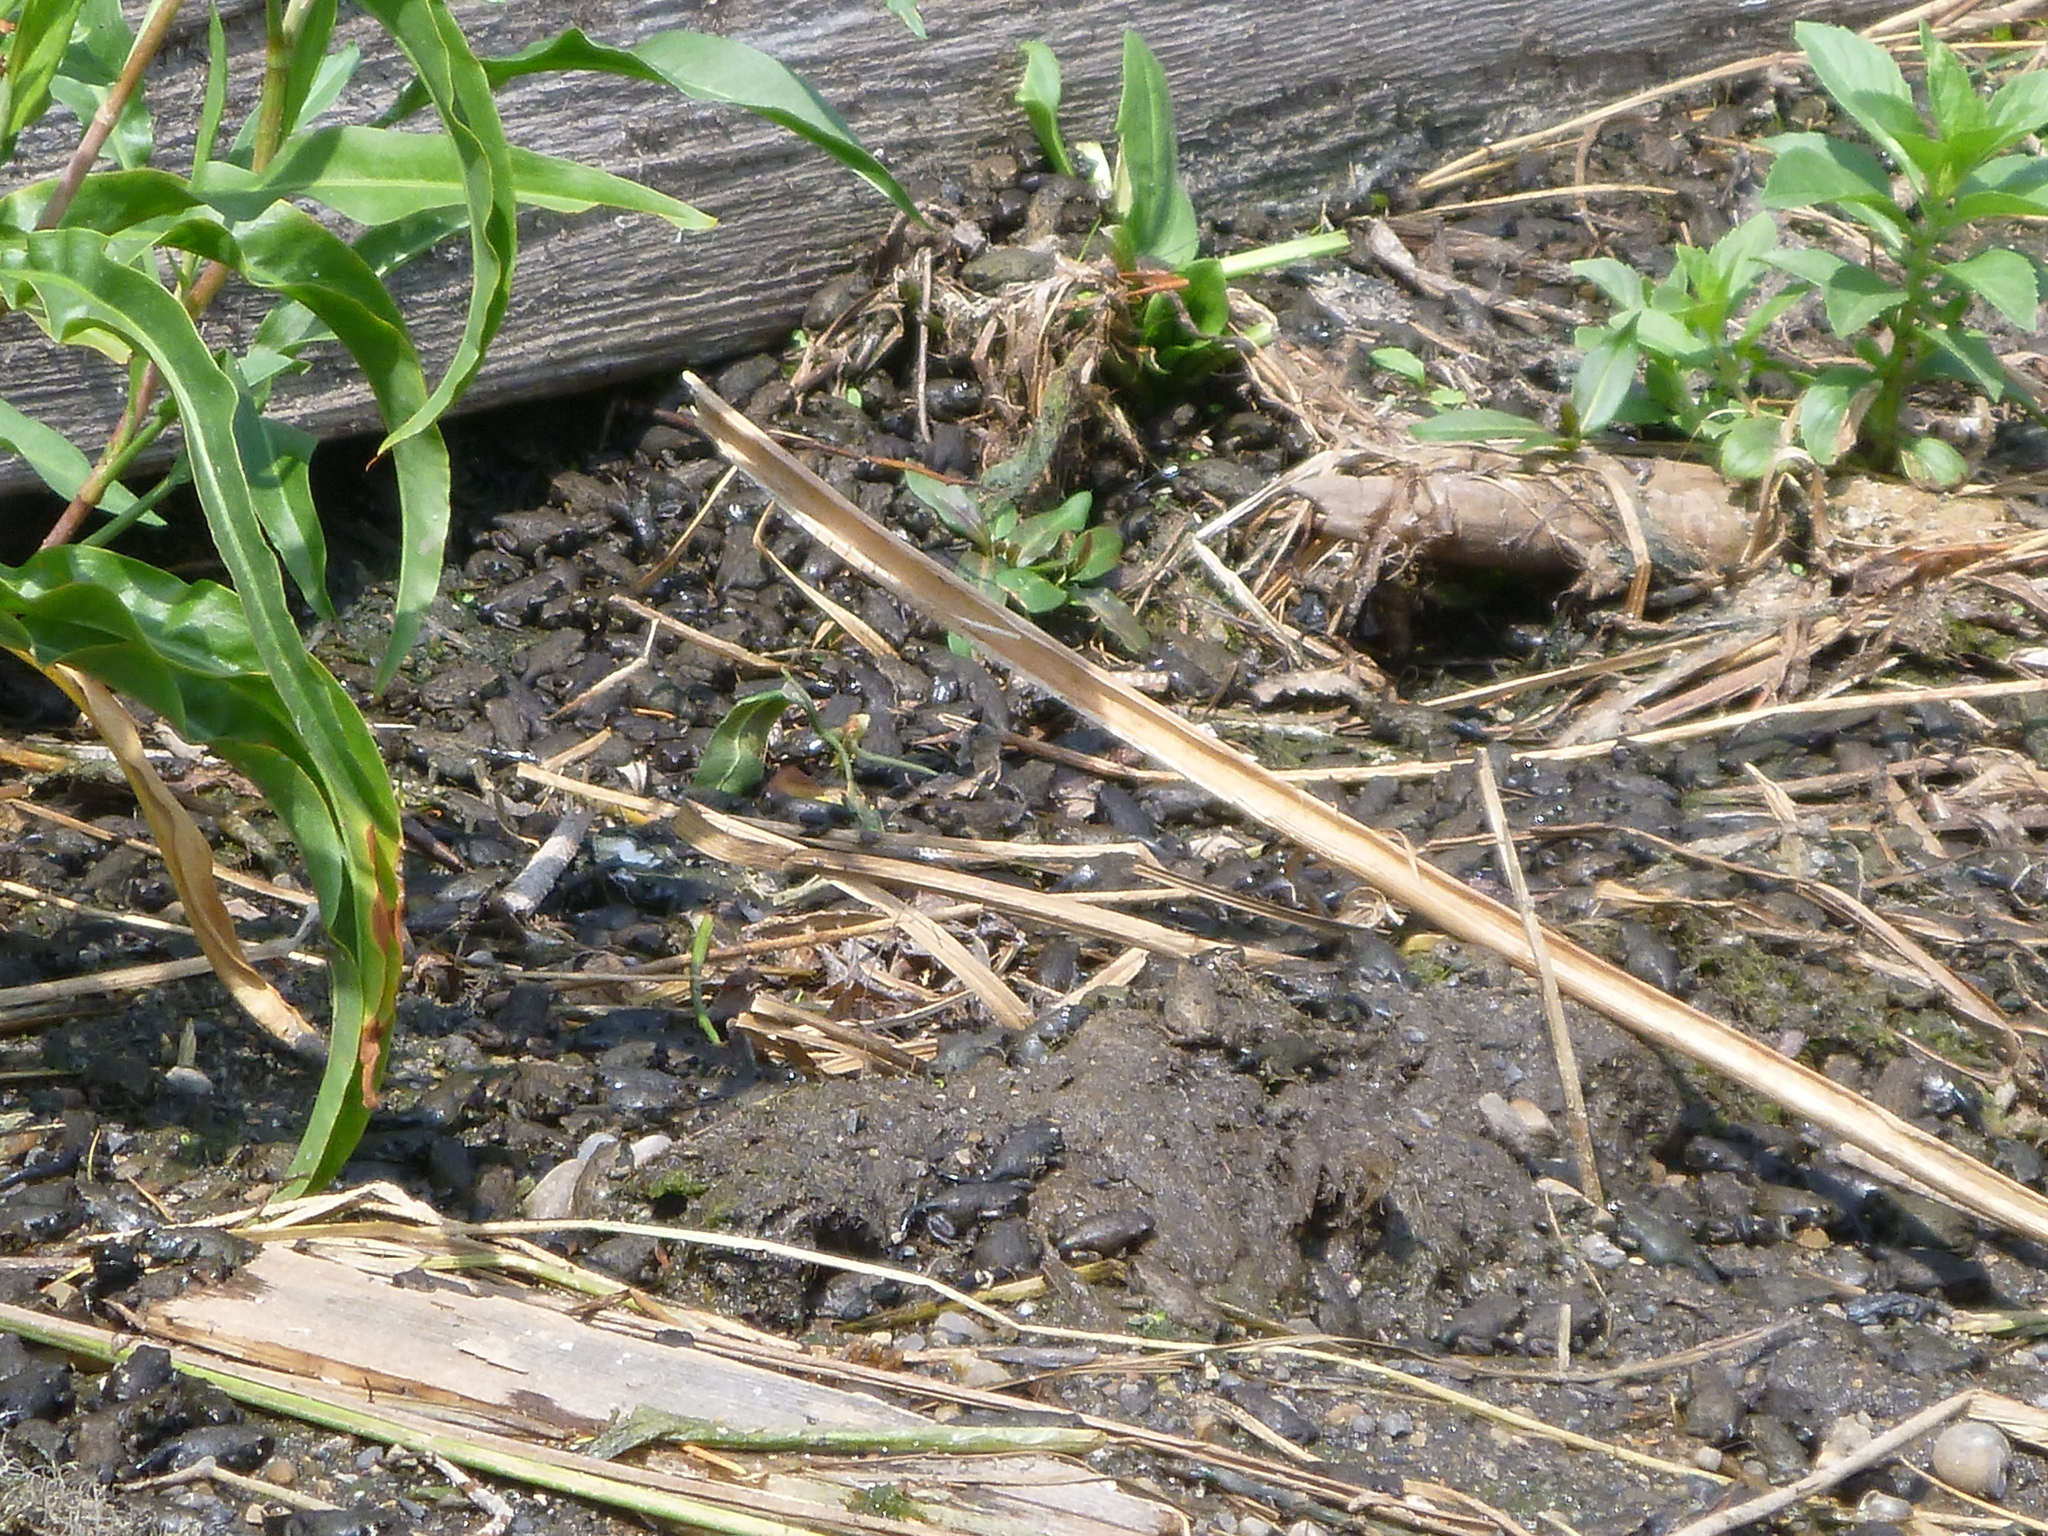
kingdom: Animalia
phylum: Chordata
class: Amphibia
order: Anura
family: Bufonidae
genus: Anaxyrus
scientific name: Anaxyrus boreas
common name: Western toad
